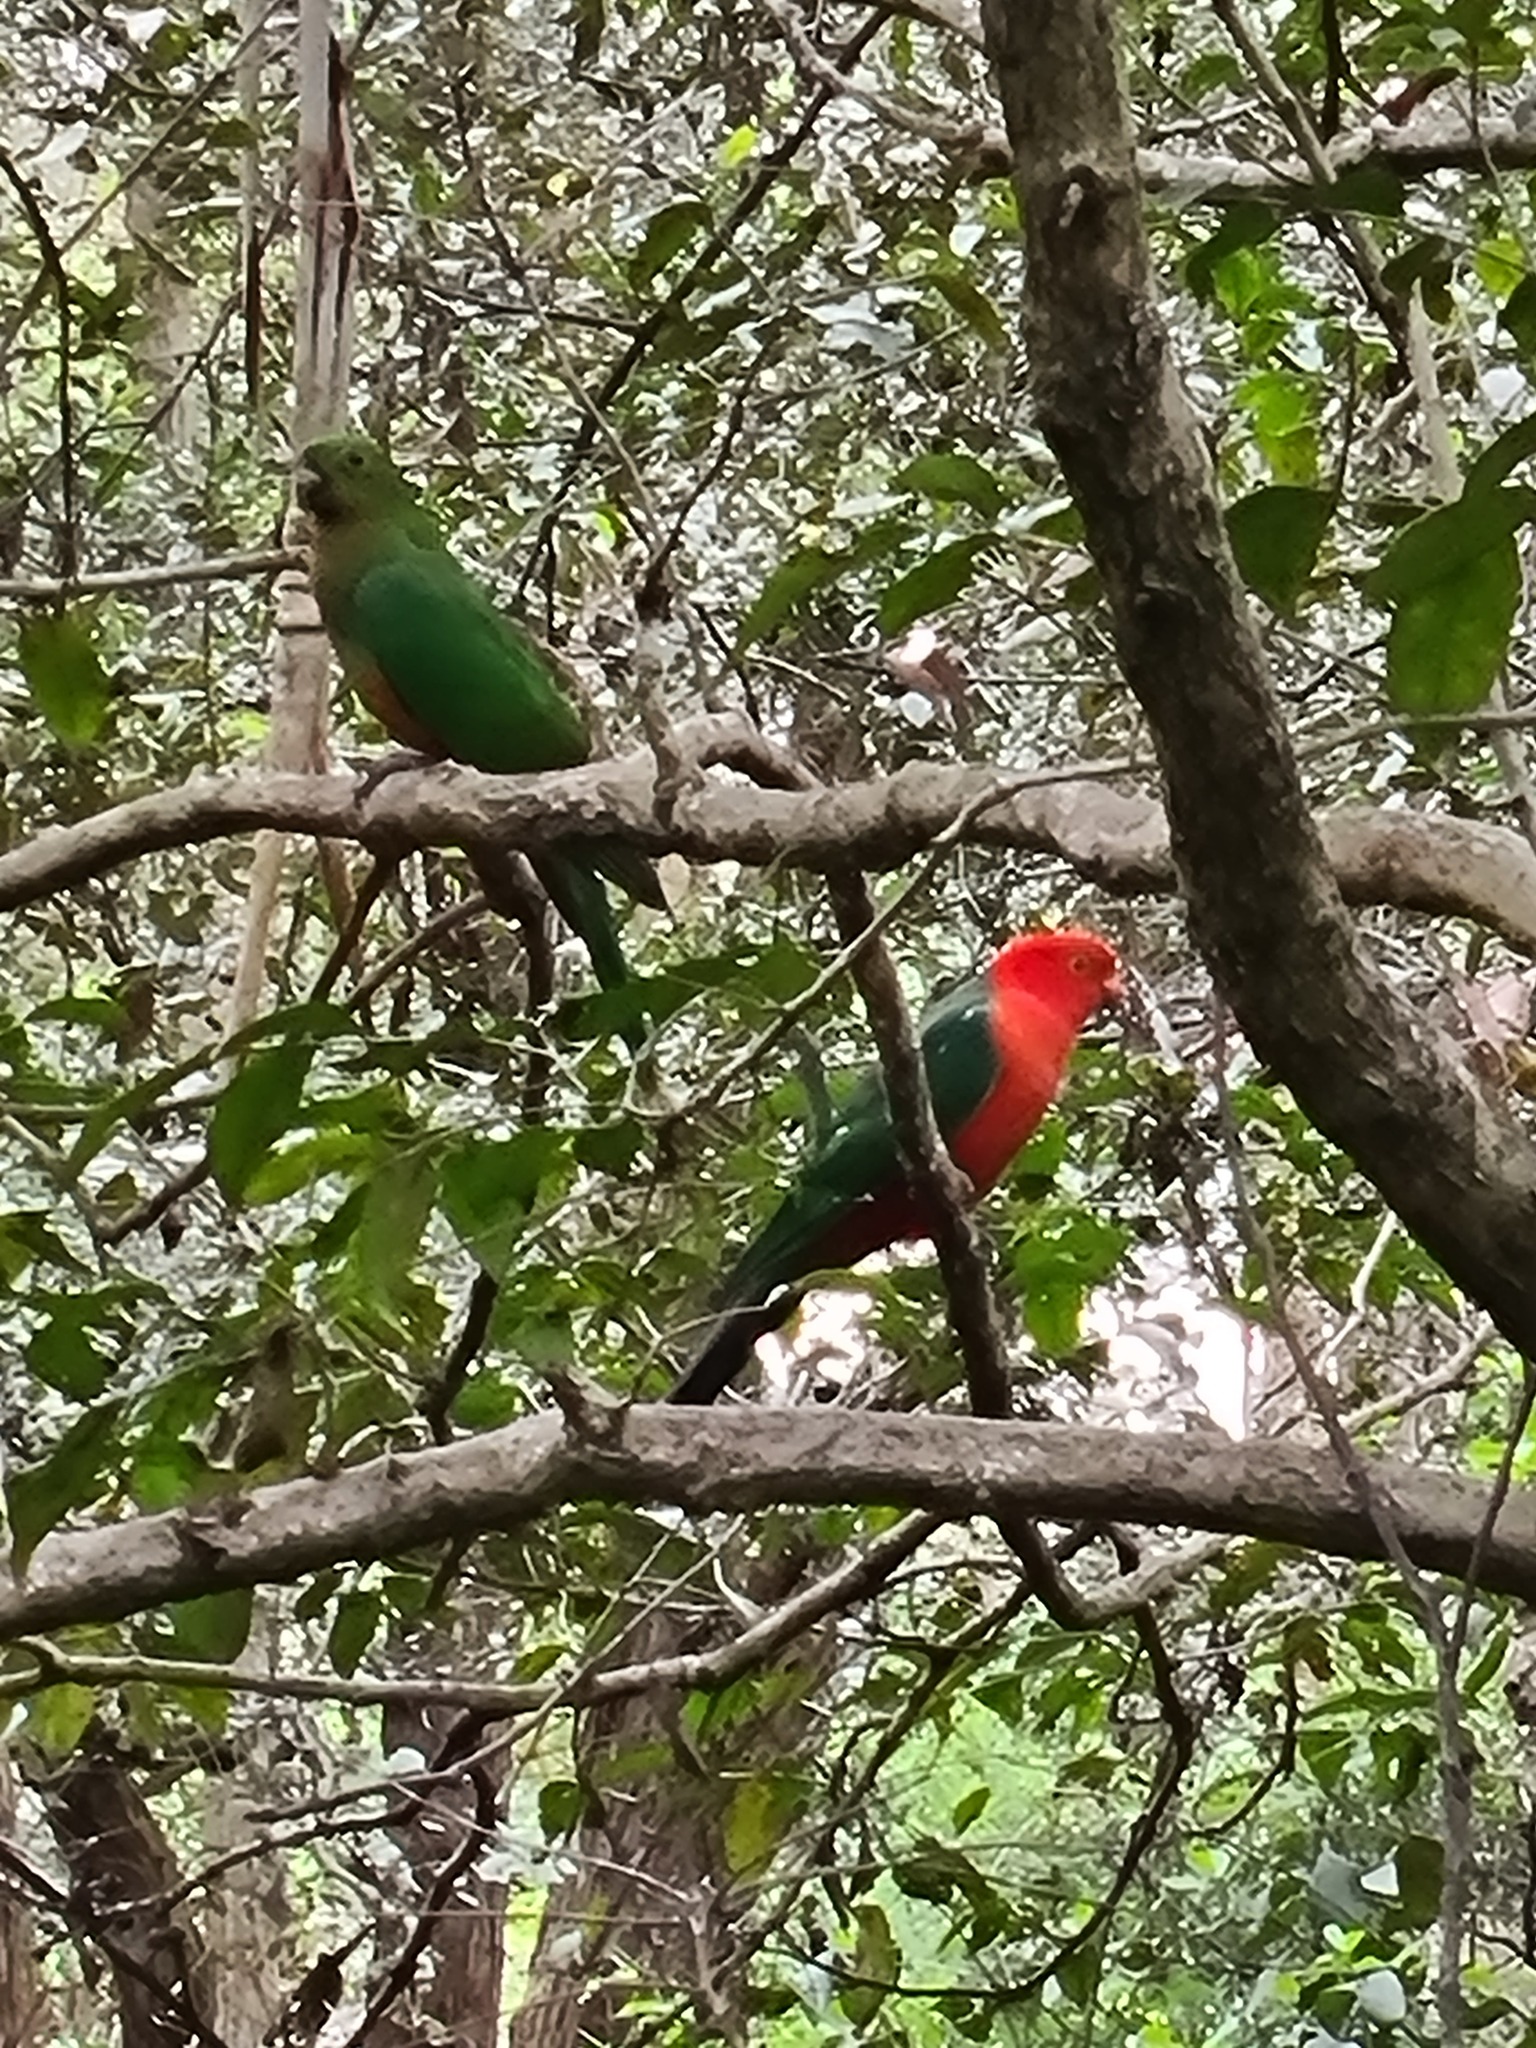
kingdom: Animalia
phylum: Chordata
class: Aves
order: Psittaciformes
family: Psittacidae
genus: Alisterus
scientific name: Alisterus scapularis
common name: Australian king parrot
